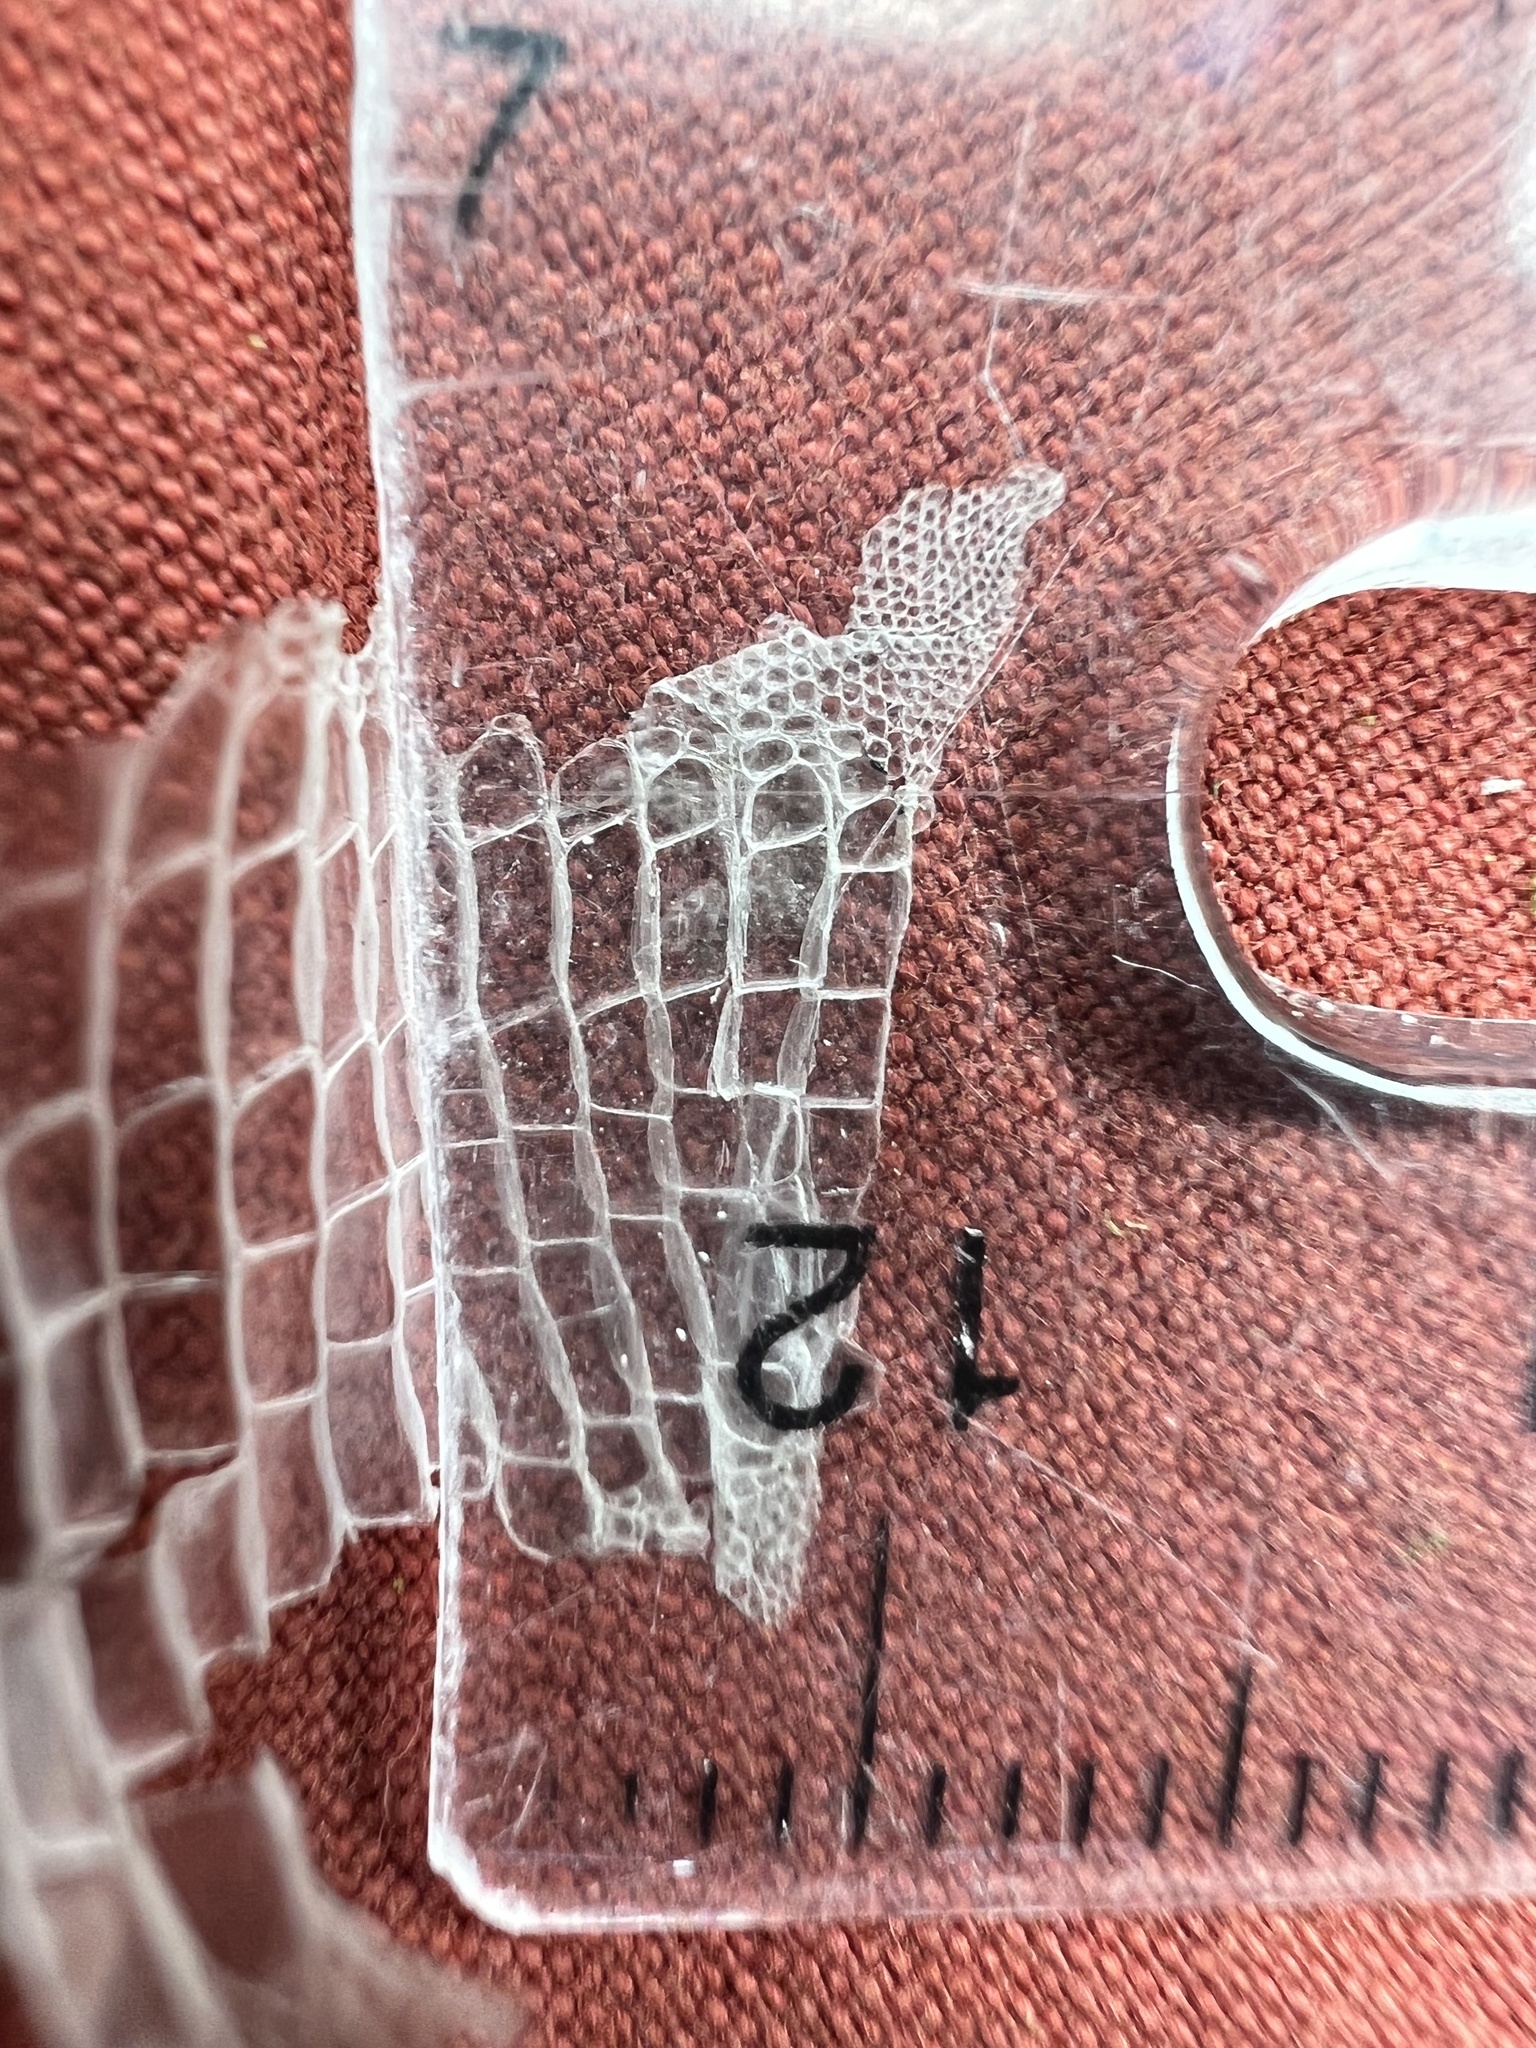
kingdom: Animalia
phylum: Chordata
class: Squamata
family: Lacertidae
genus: Podarcis
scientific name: Podarcis muralis
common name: Common wall lizard
